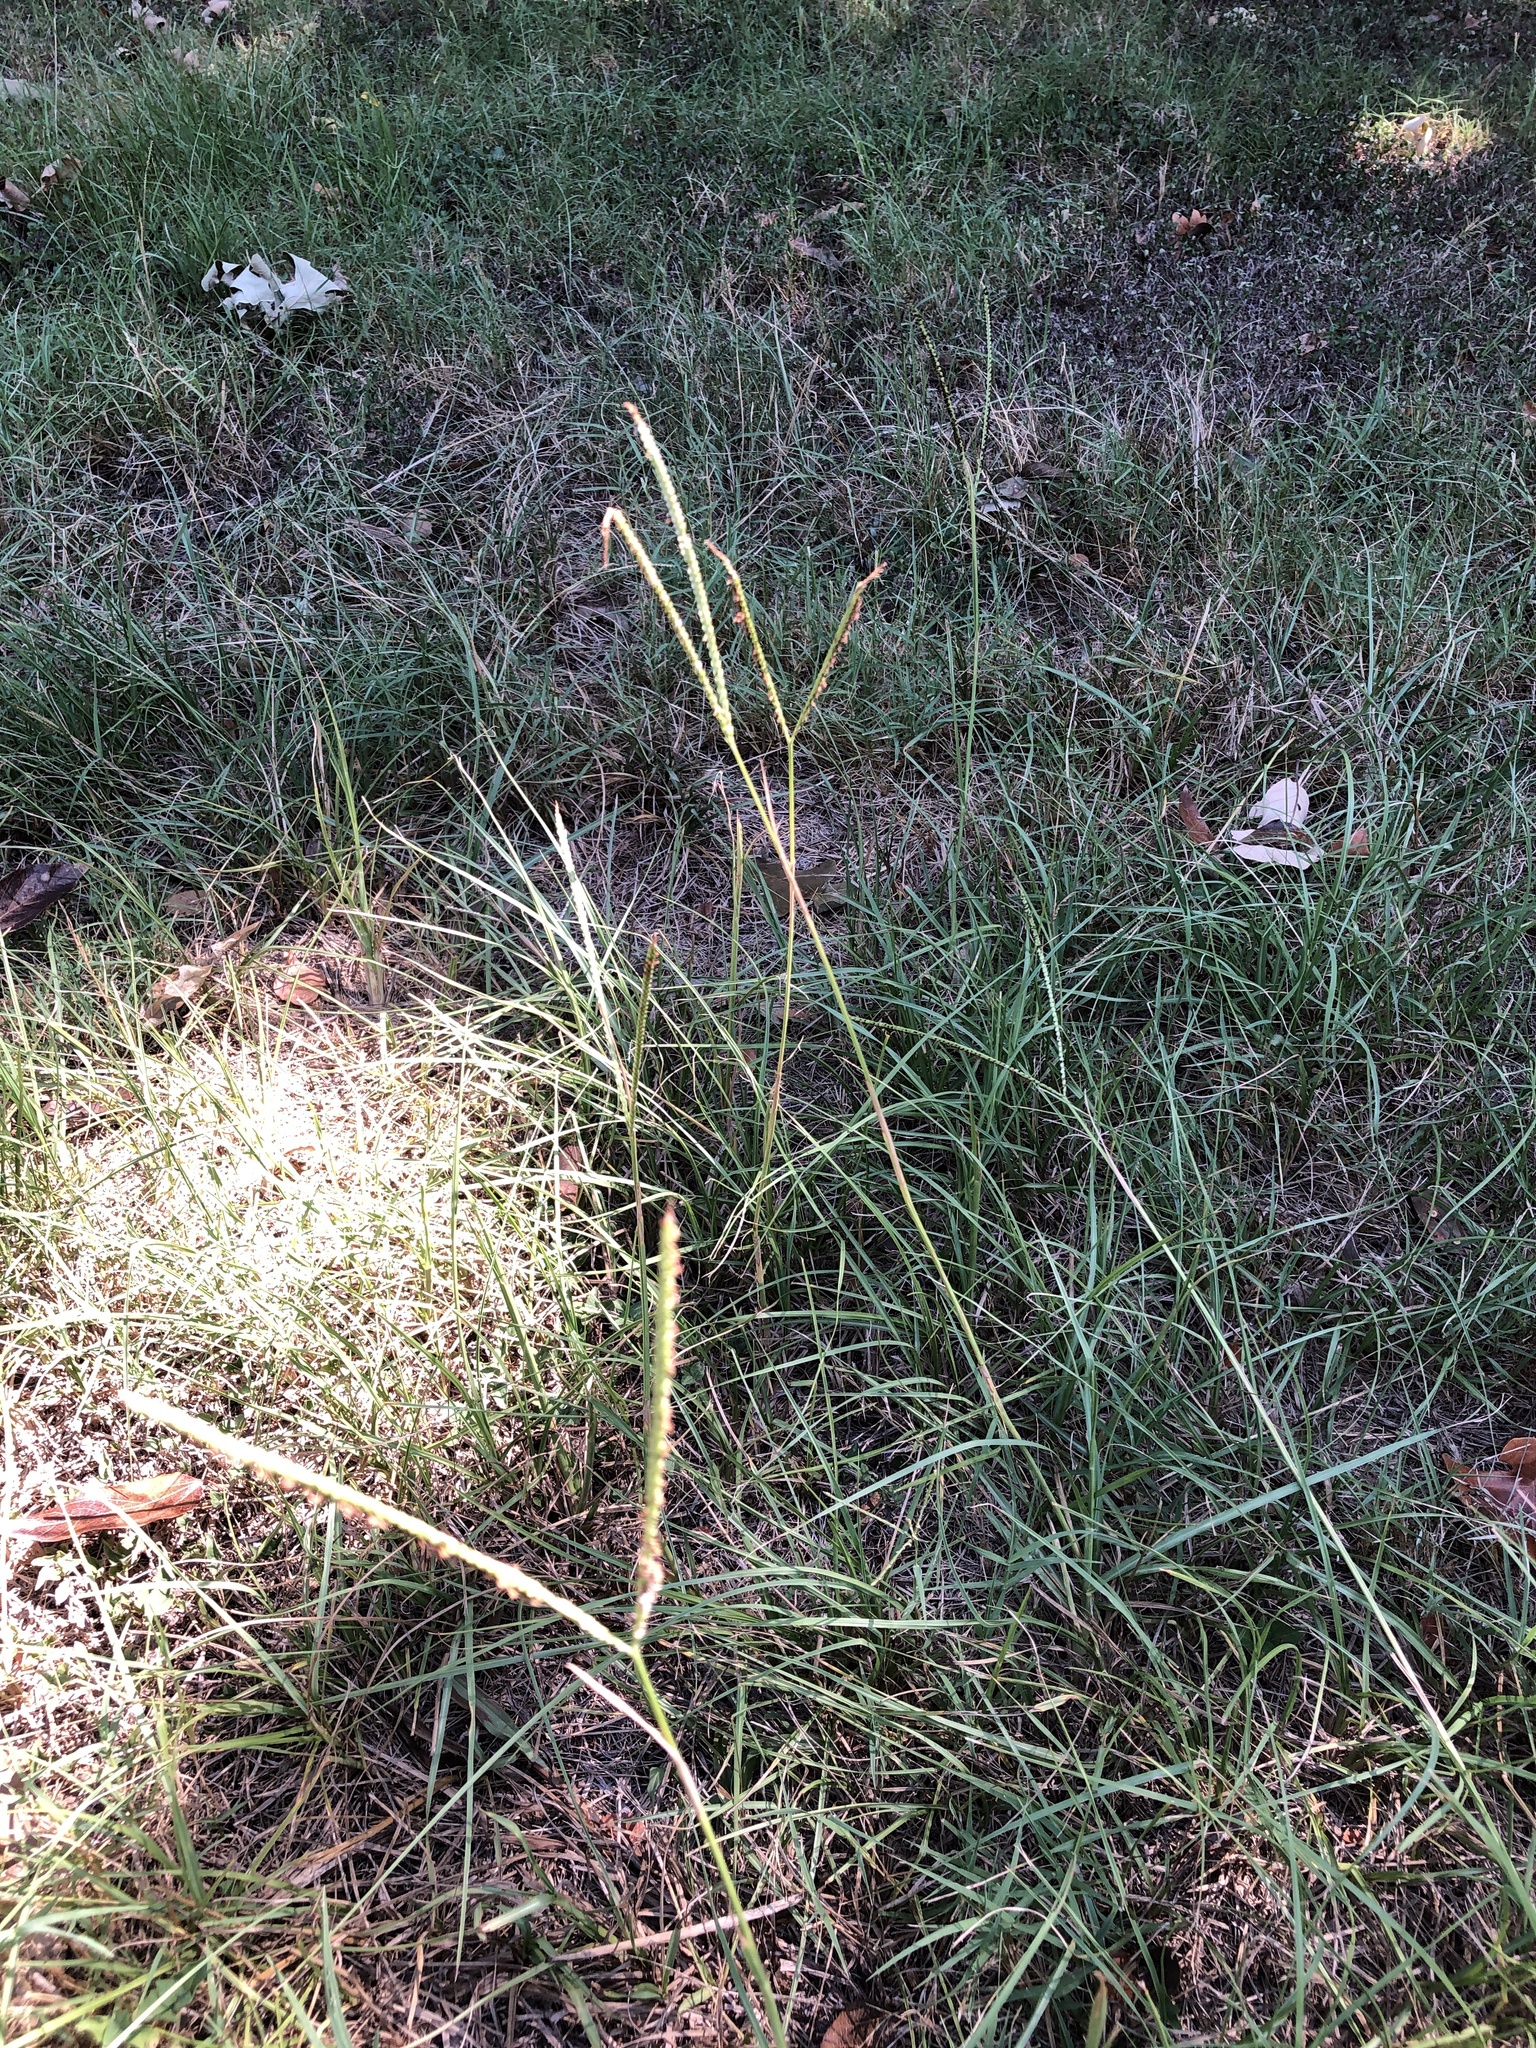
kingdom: Plantae
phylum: Tracheophyta
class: Liliopsida
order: Poales
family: Poaceae
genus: Paspalum
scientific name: Paspalum notatum
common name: Bahiagrass
